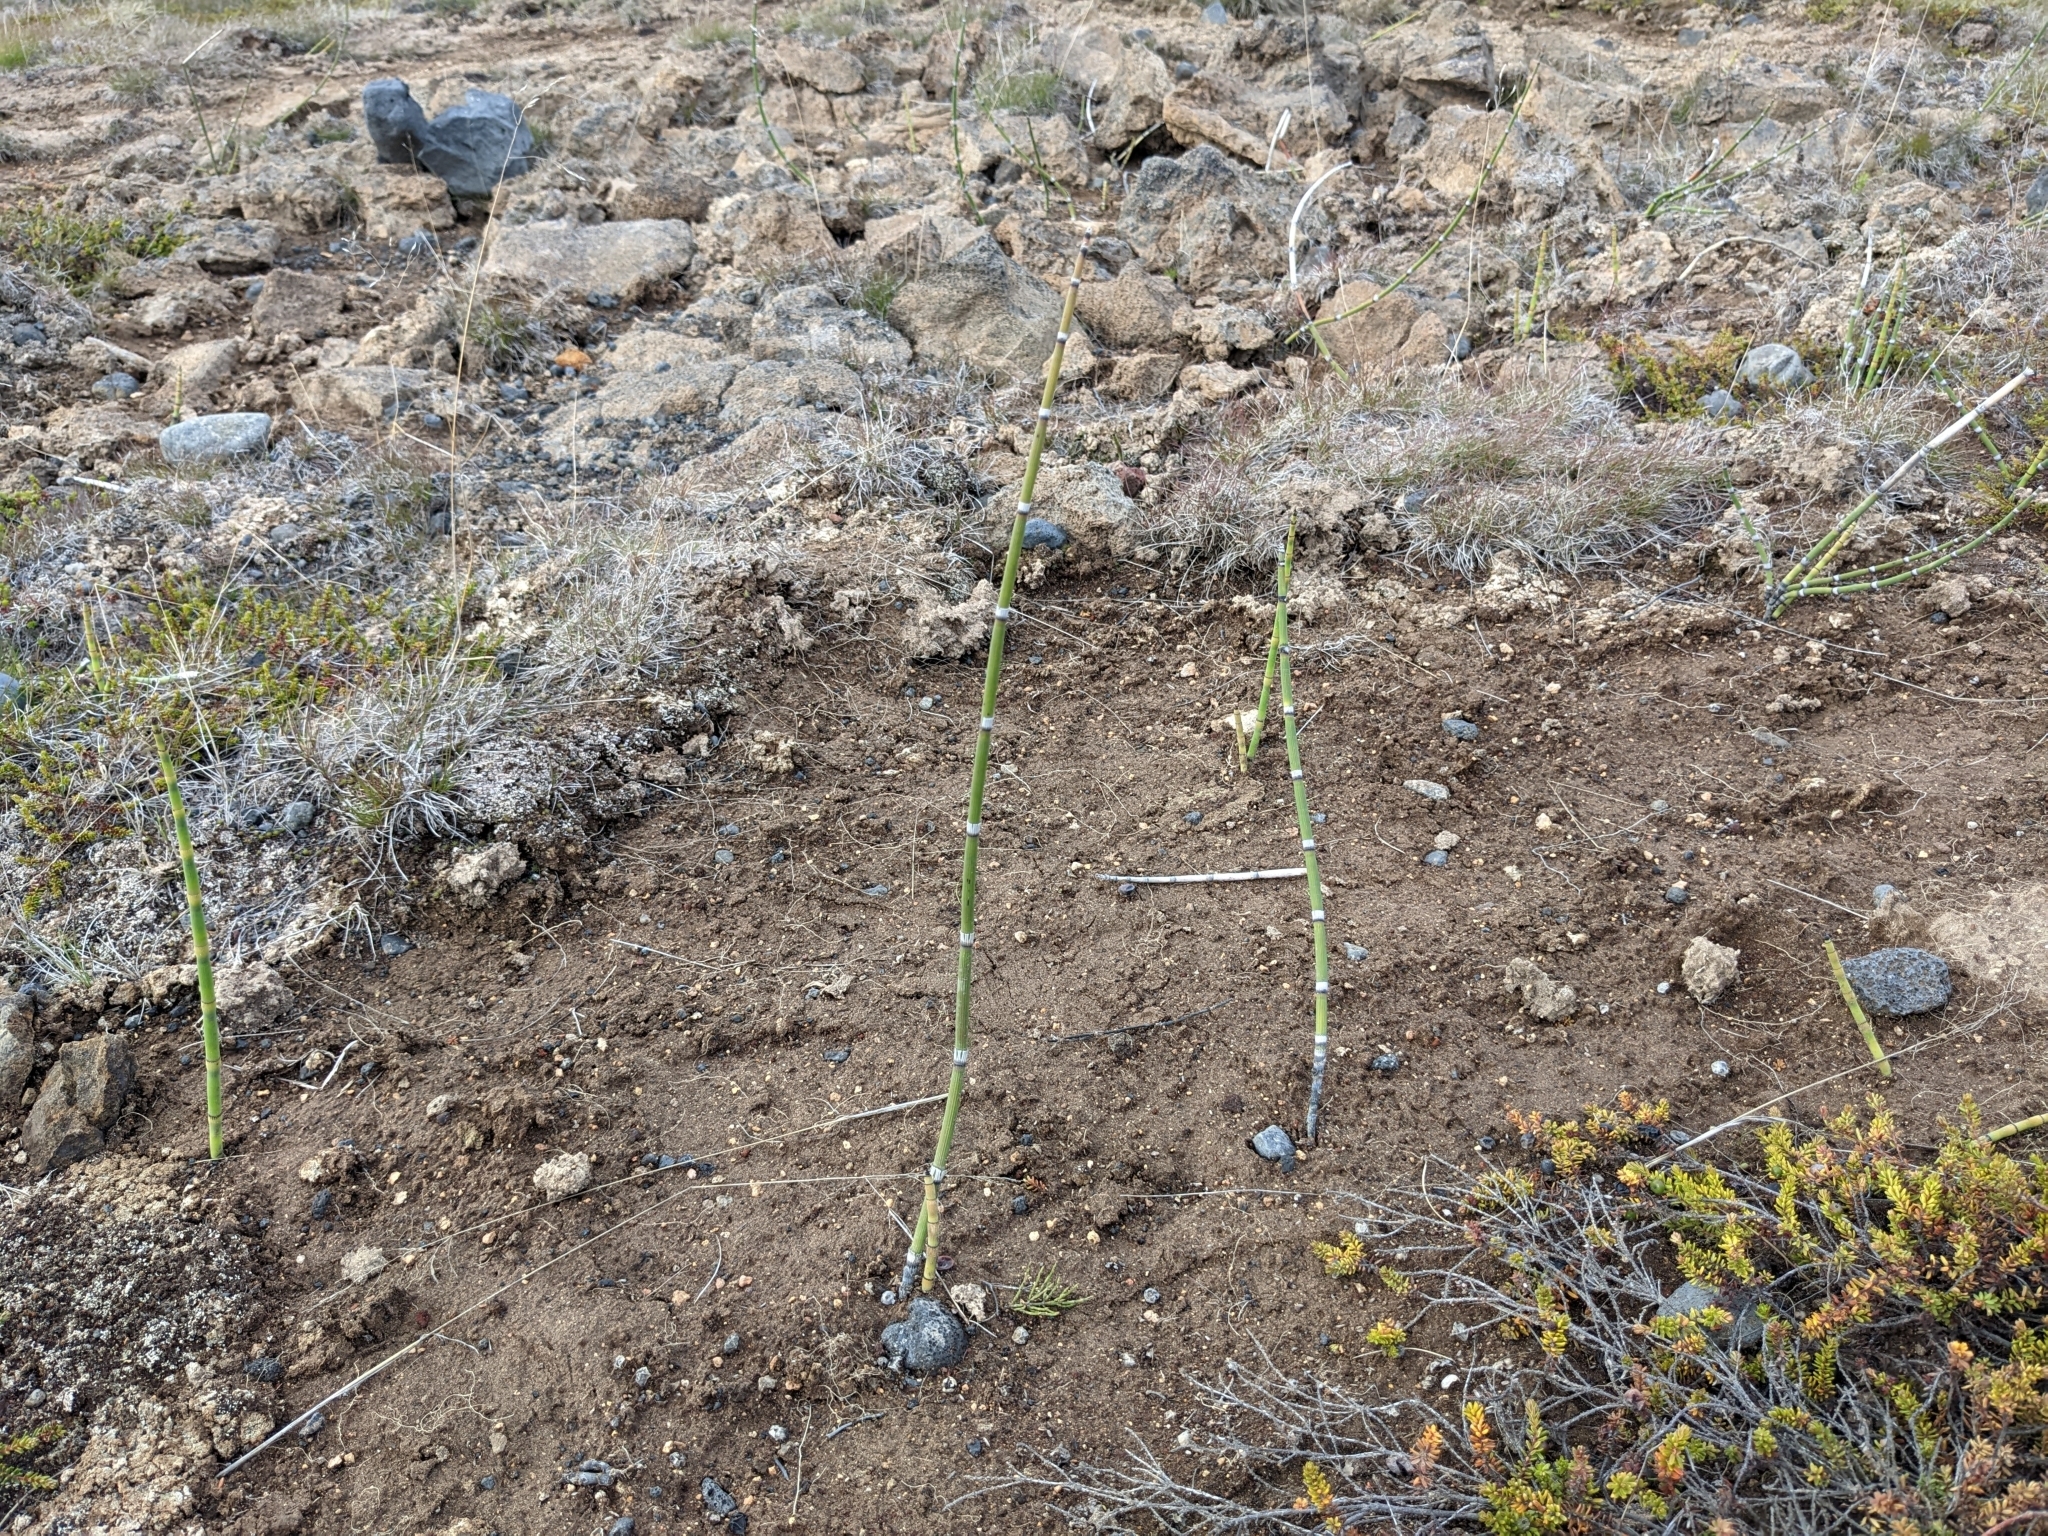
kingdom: Plantae
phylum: Tracheophyta
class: Polypodiopsida
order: Equisetales
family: Equisetaceae
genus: Equisetum
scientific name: Equisetum hyemale
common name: Rough horsetail
